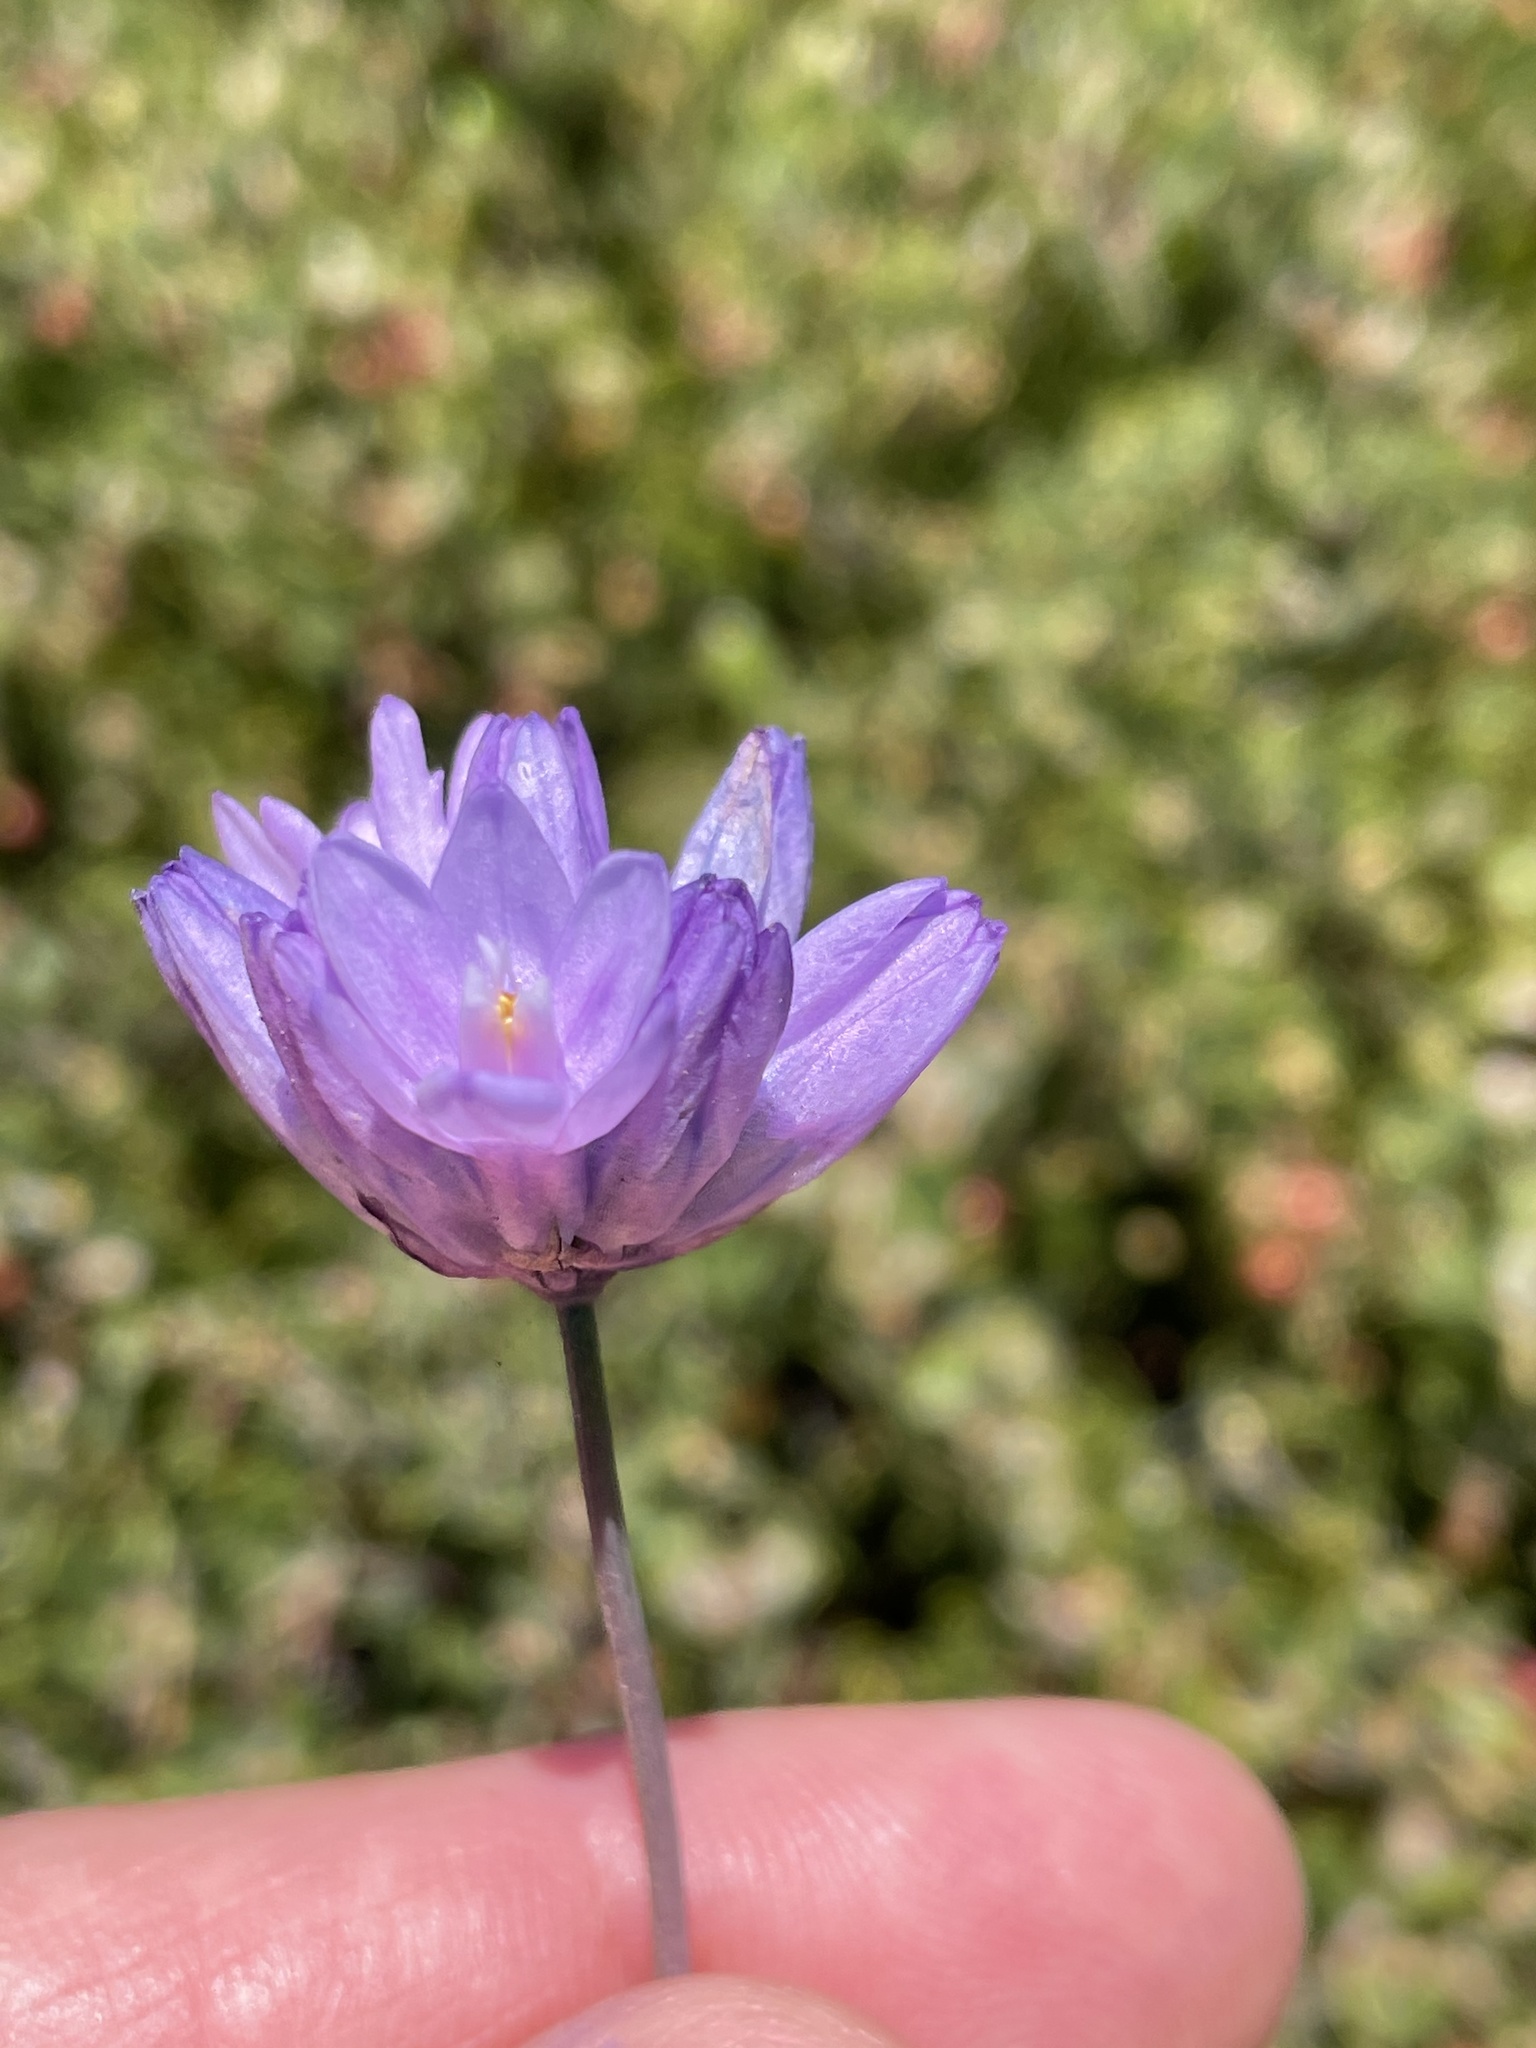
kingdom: Plantae
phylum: Tracheophyta
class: Liliopsida
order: Asparagales
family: Asparagaceae
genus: Dipterostemon
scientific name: Dipterostemon capitatus
